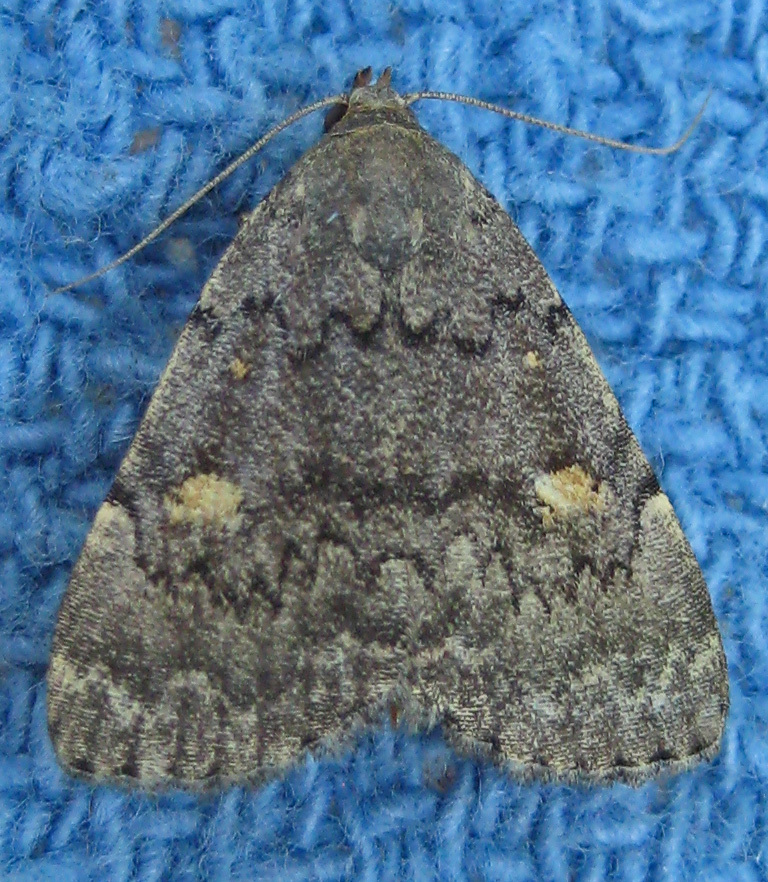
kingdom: Animalia
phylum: Arthropoda
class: Insecta
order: Lepidoptera
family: Erebidae
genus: Idia
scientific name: Idia aemula
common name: Common idia moth
